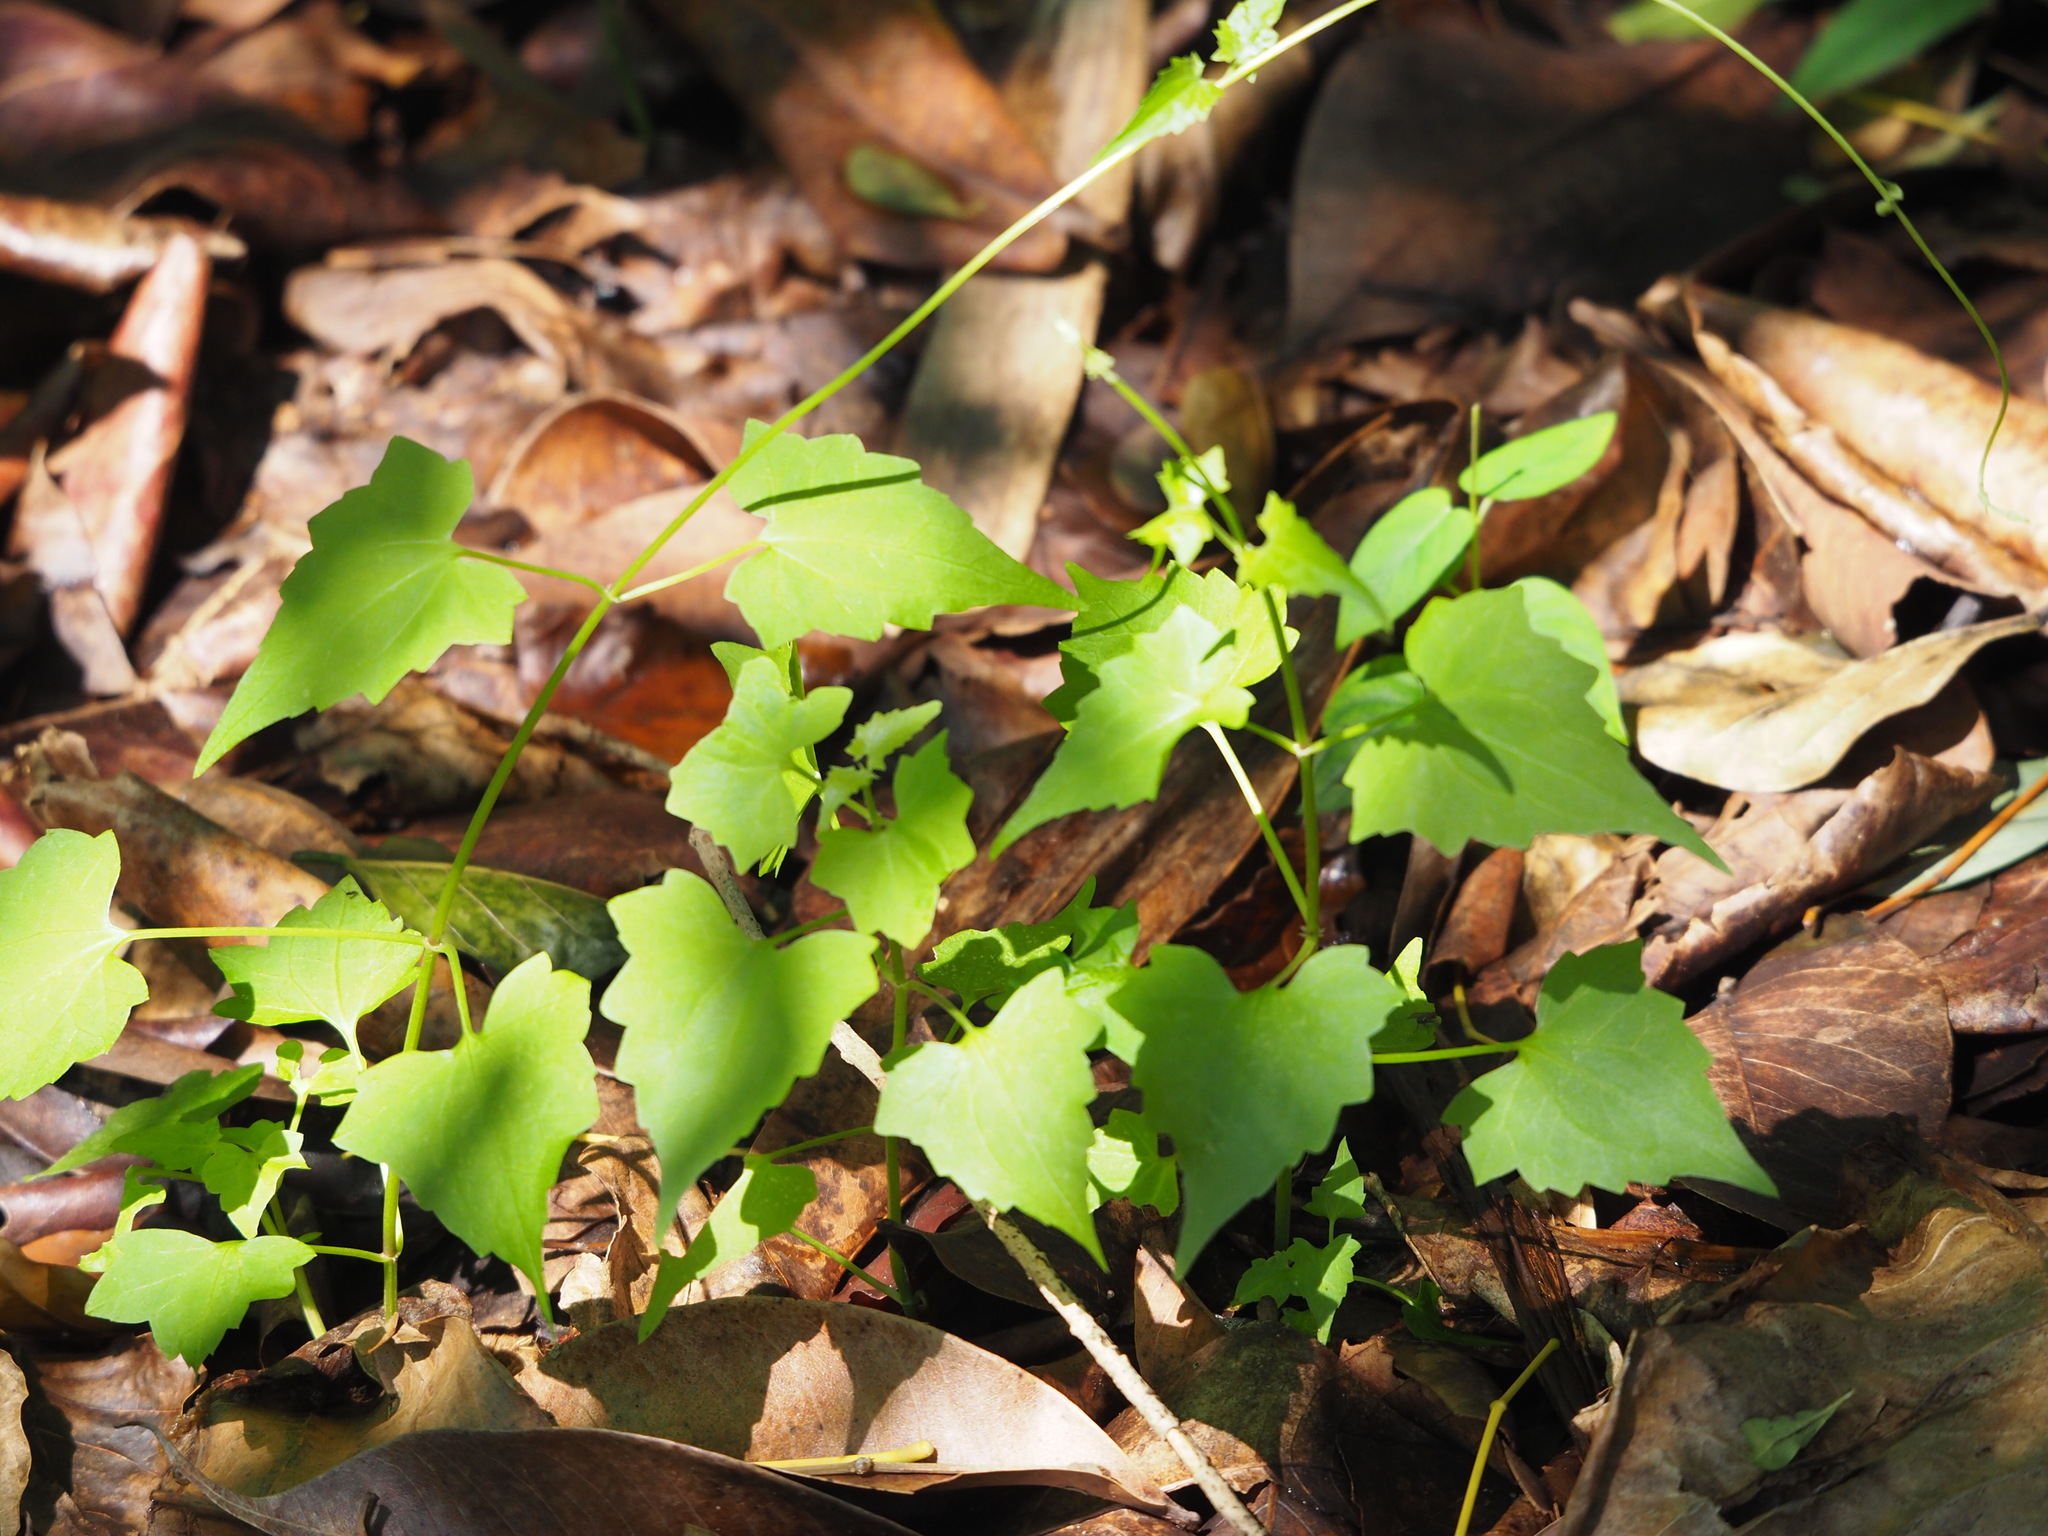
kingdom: Plantae
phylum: Tracheophyta
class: Magnoliopsida
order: Asterales
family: Asteraceae
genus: Mikania
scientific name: Mikania micrantha
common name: Mile-a-minute
